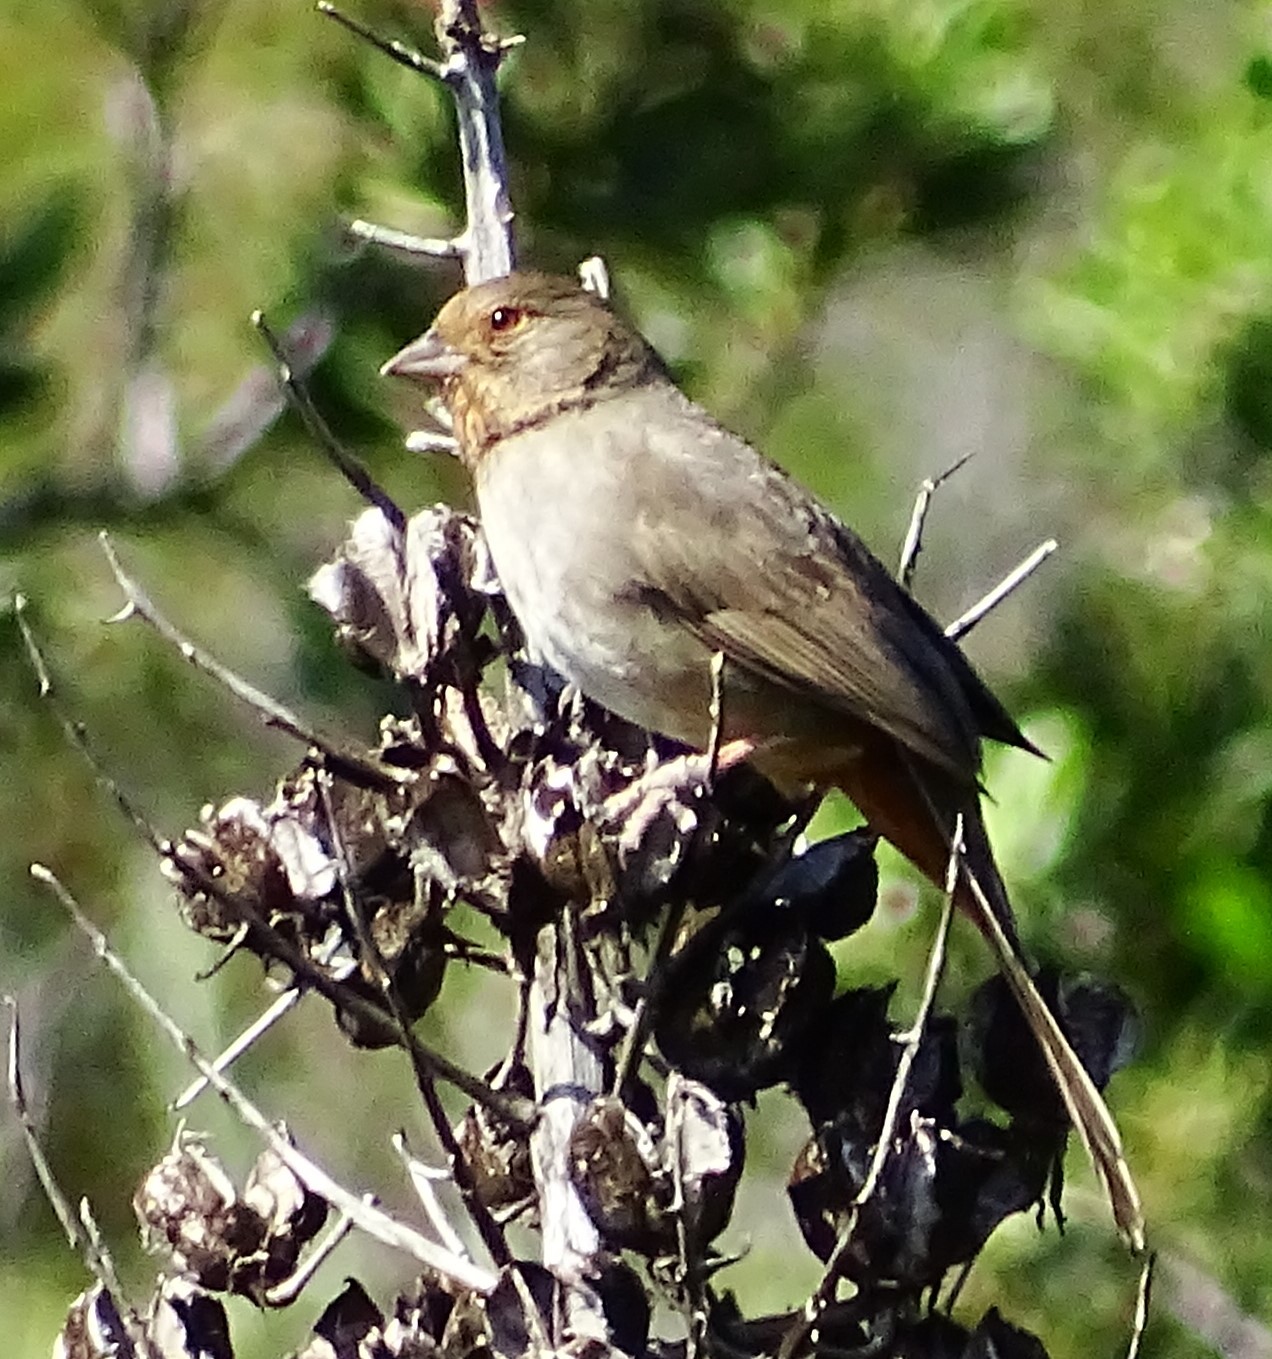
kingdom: Animalia
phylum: Chordata
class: Aves
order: Passeriformes
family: Passerellidae
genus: Melozone
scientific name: Melozone crissalis
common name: California towhee
